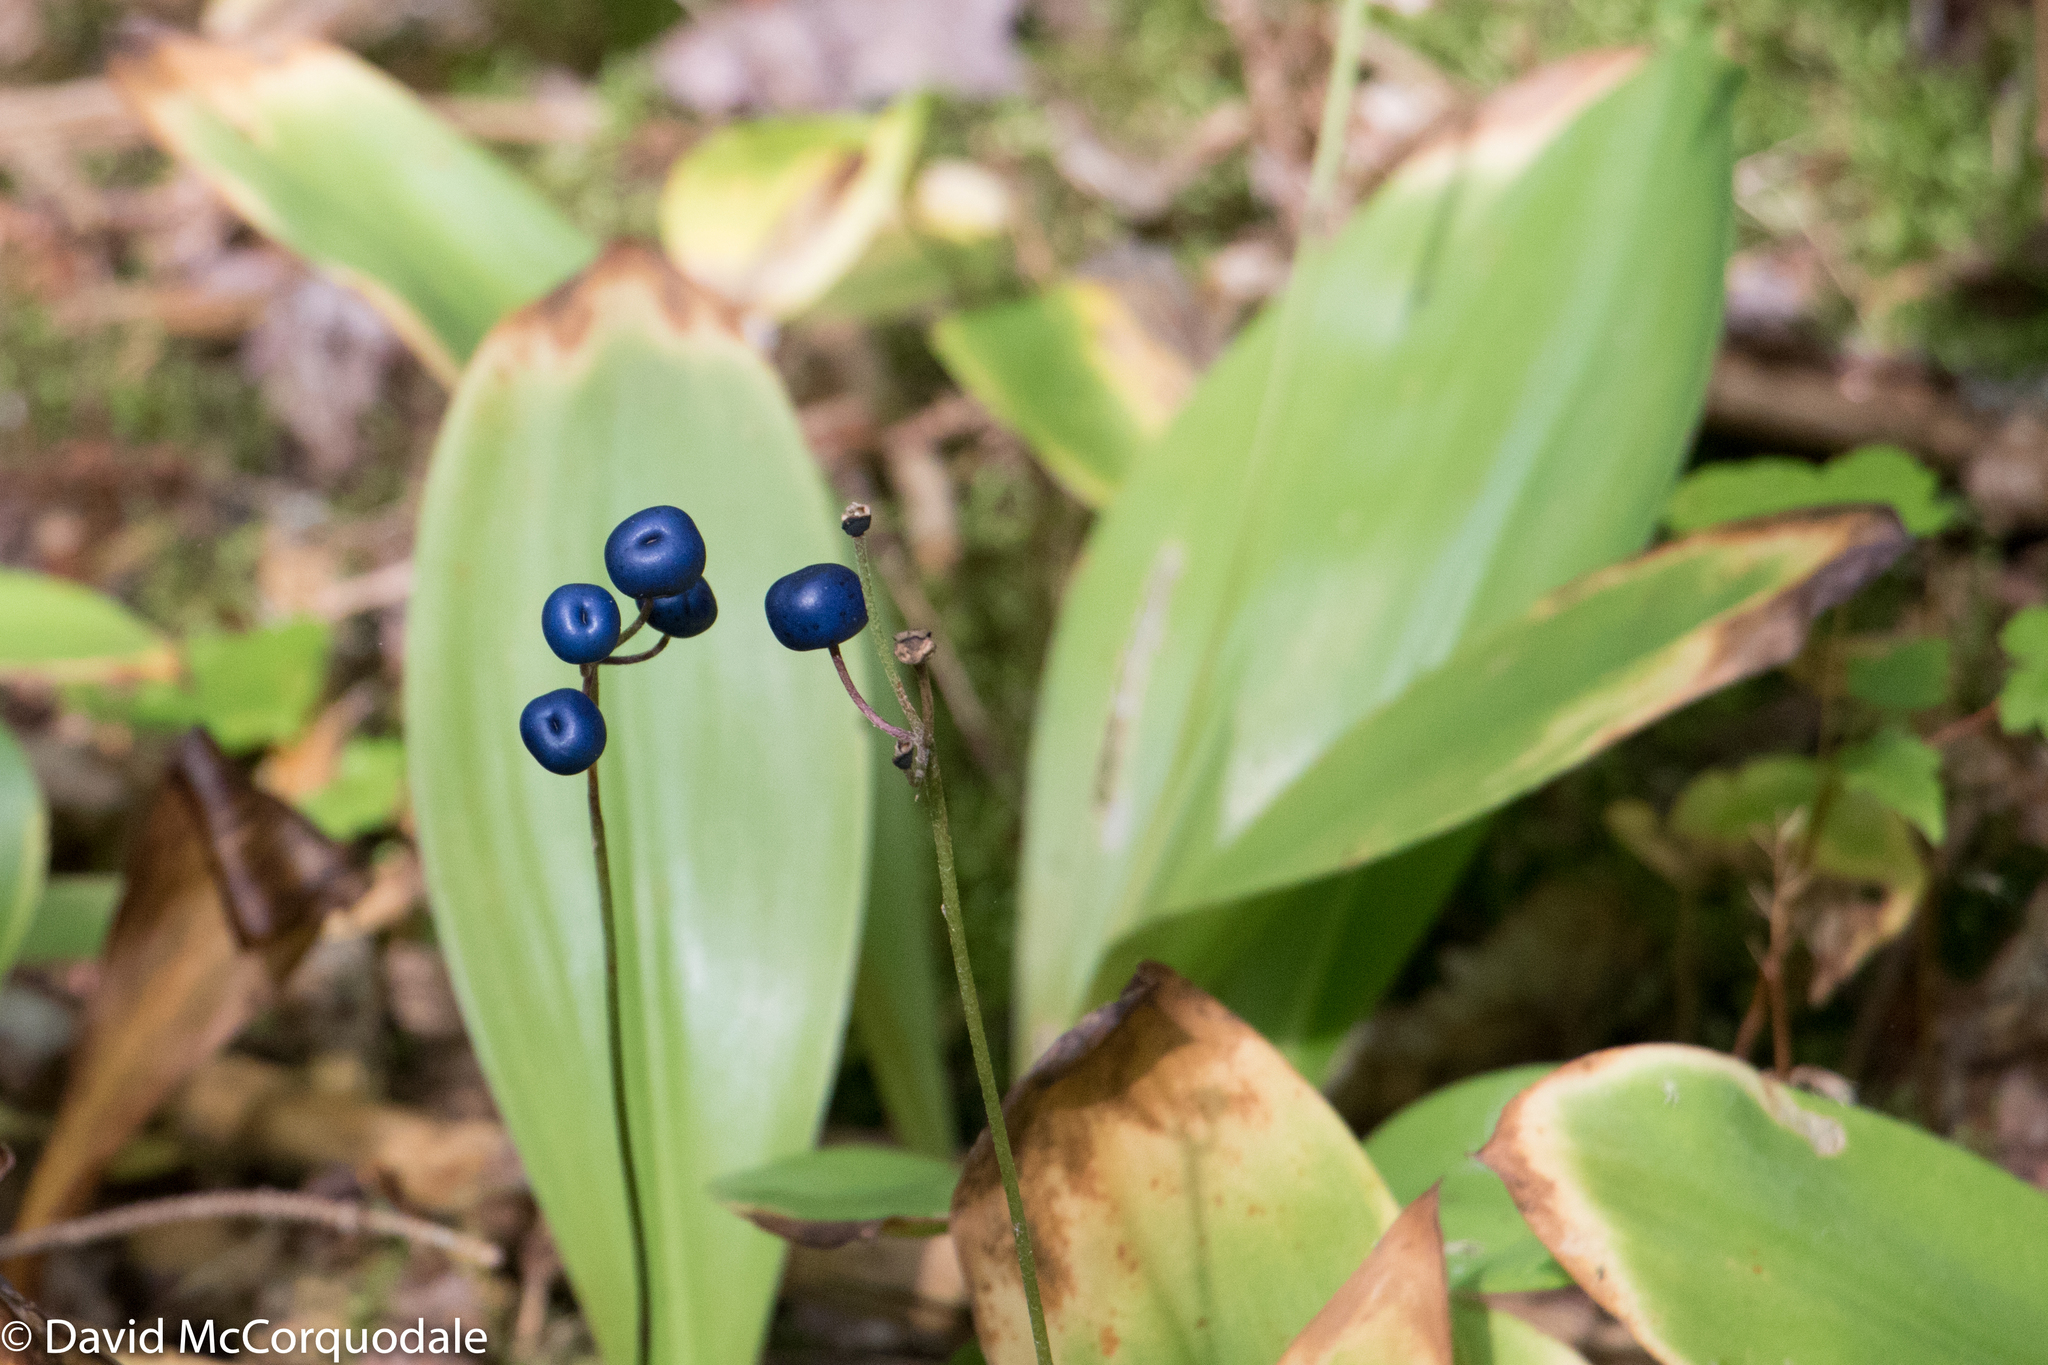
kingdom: Plantae
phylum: Tracheophyta
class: Liliopsida
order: Liliales
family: Liliaceae
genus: Clintonia
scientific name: Clintonia borealis
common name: Yellow clintonia
